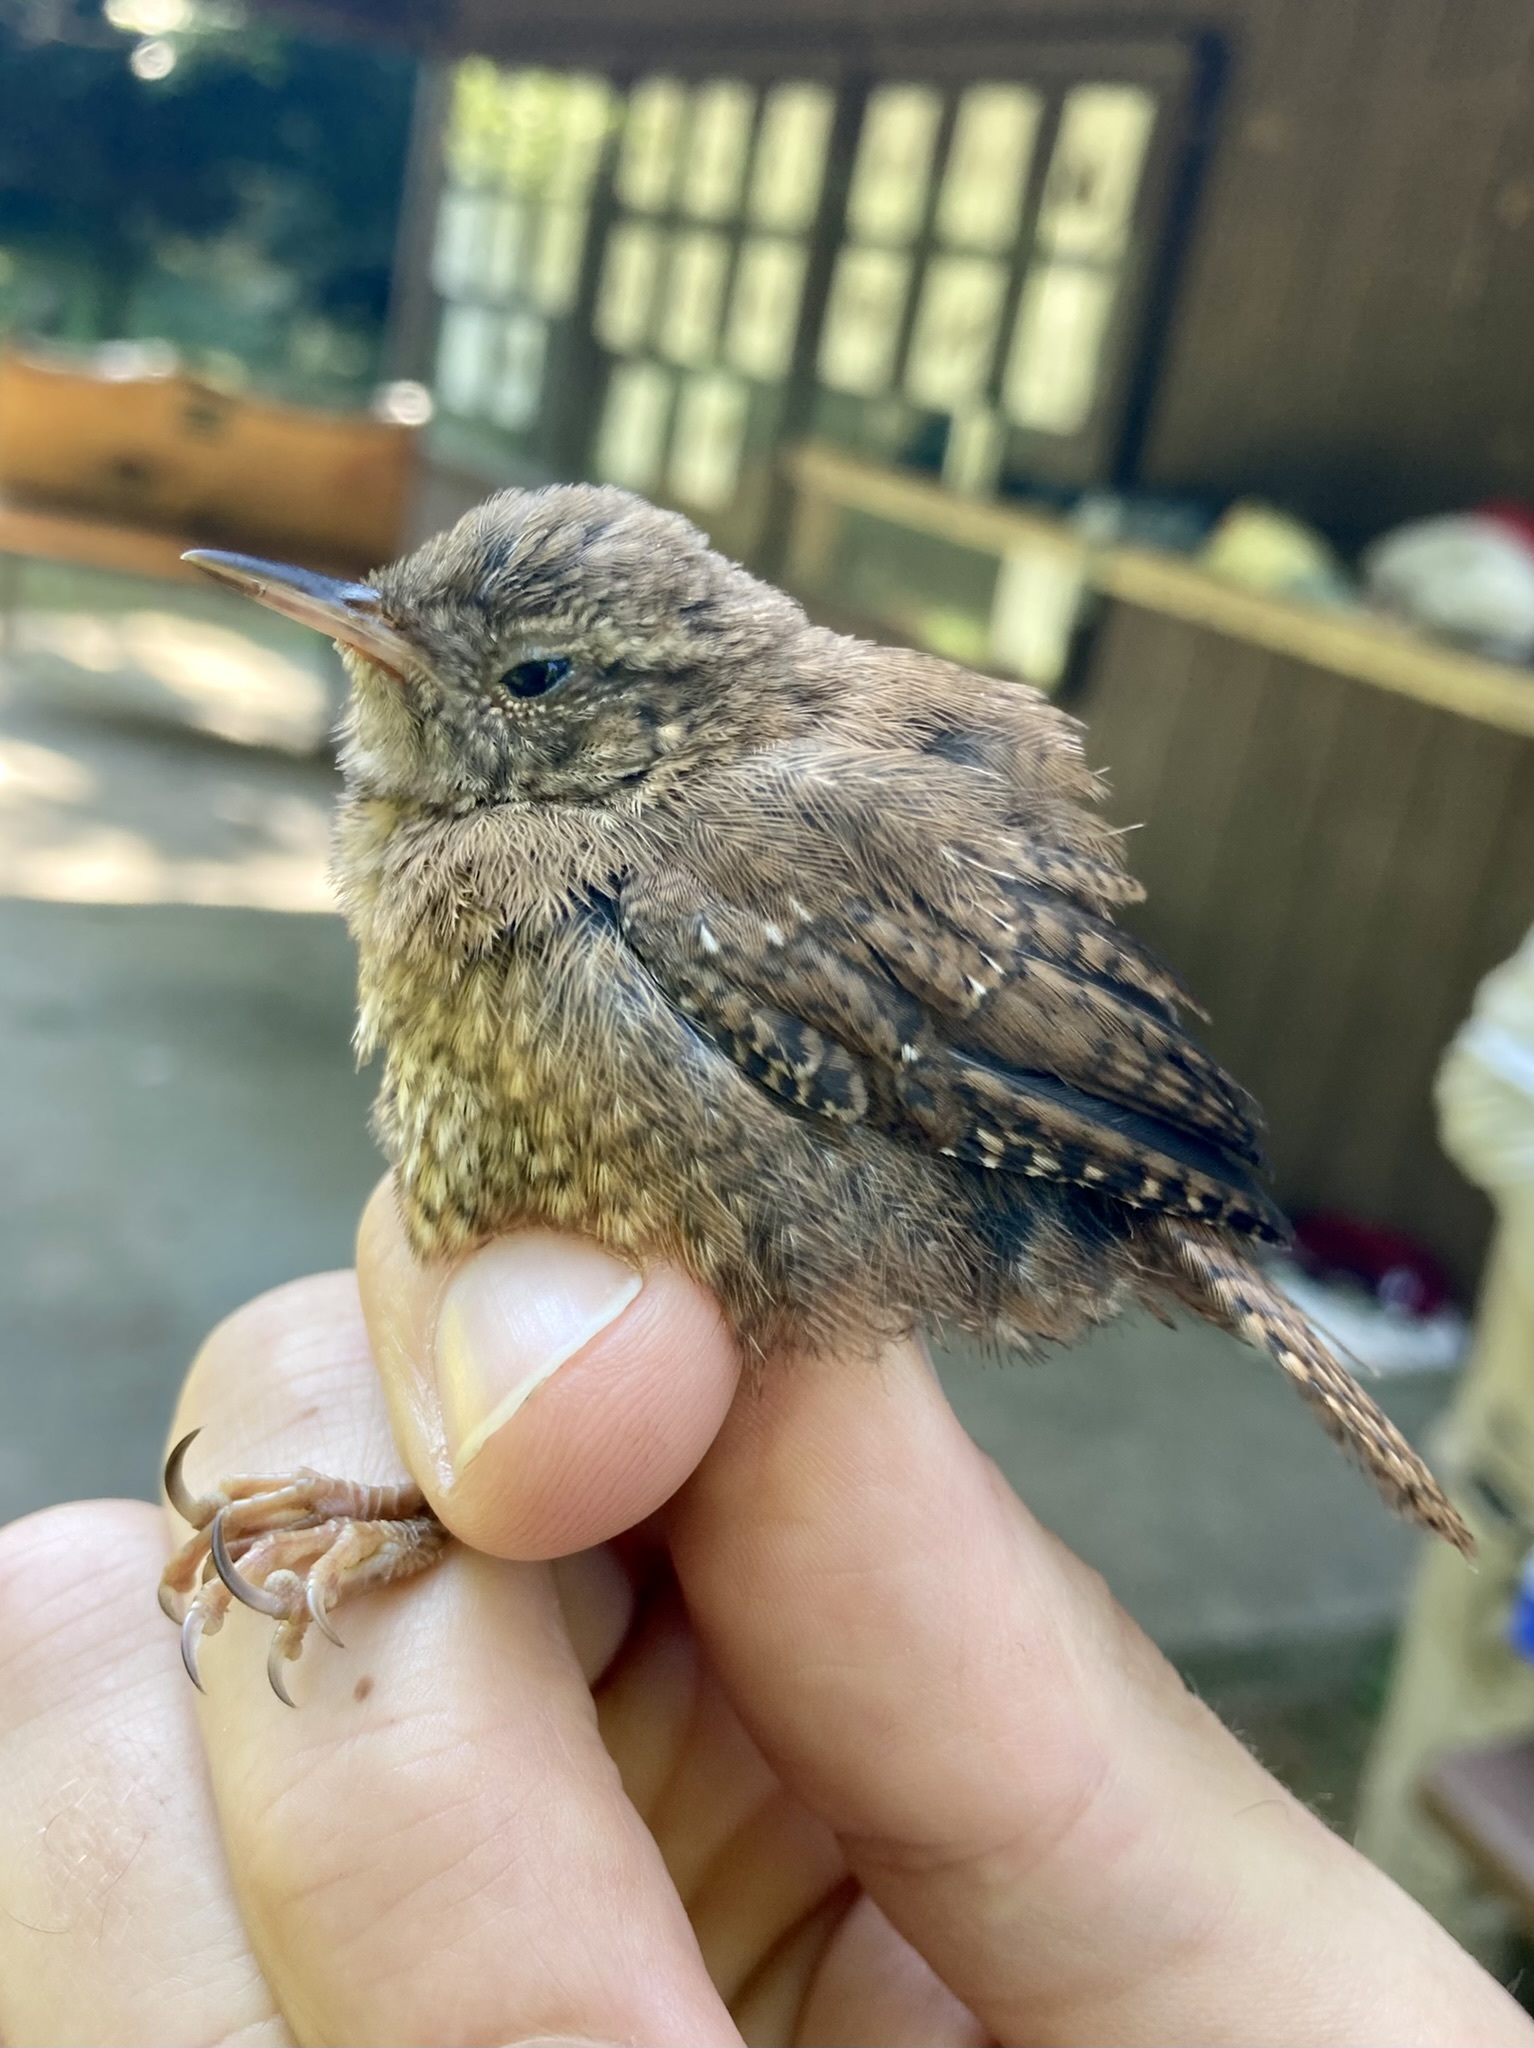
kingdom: Animalia
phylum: Chordata
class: Aves
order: Passeriformes
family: Troglodytidae
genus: Troglodytes
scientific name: Troglodytes hiemalis
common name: Winter wren
